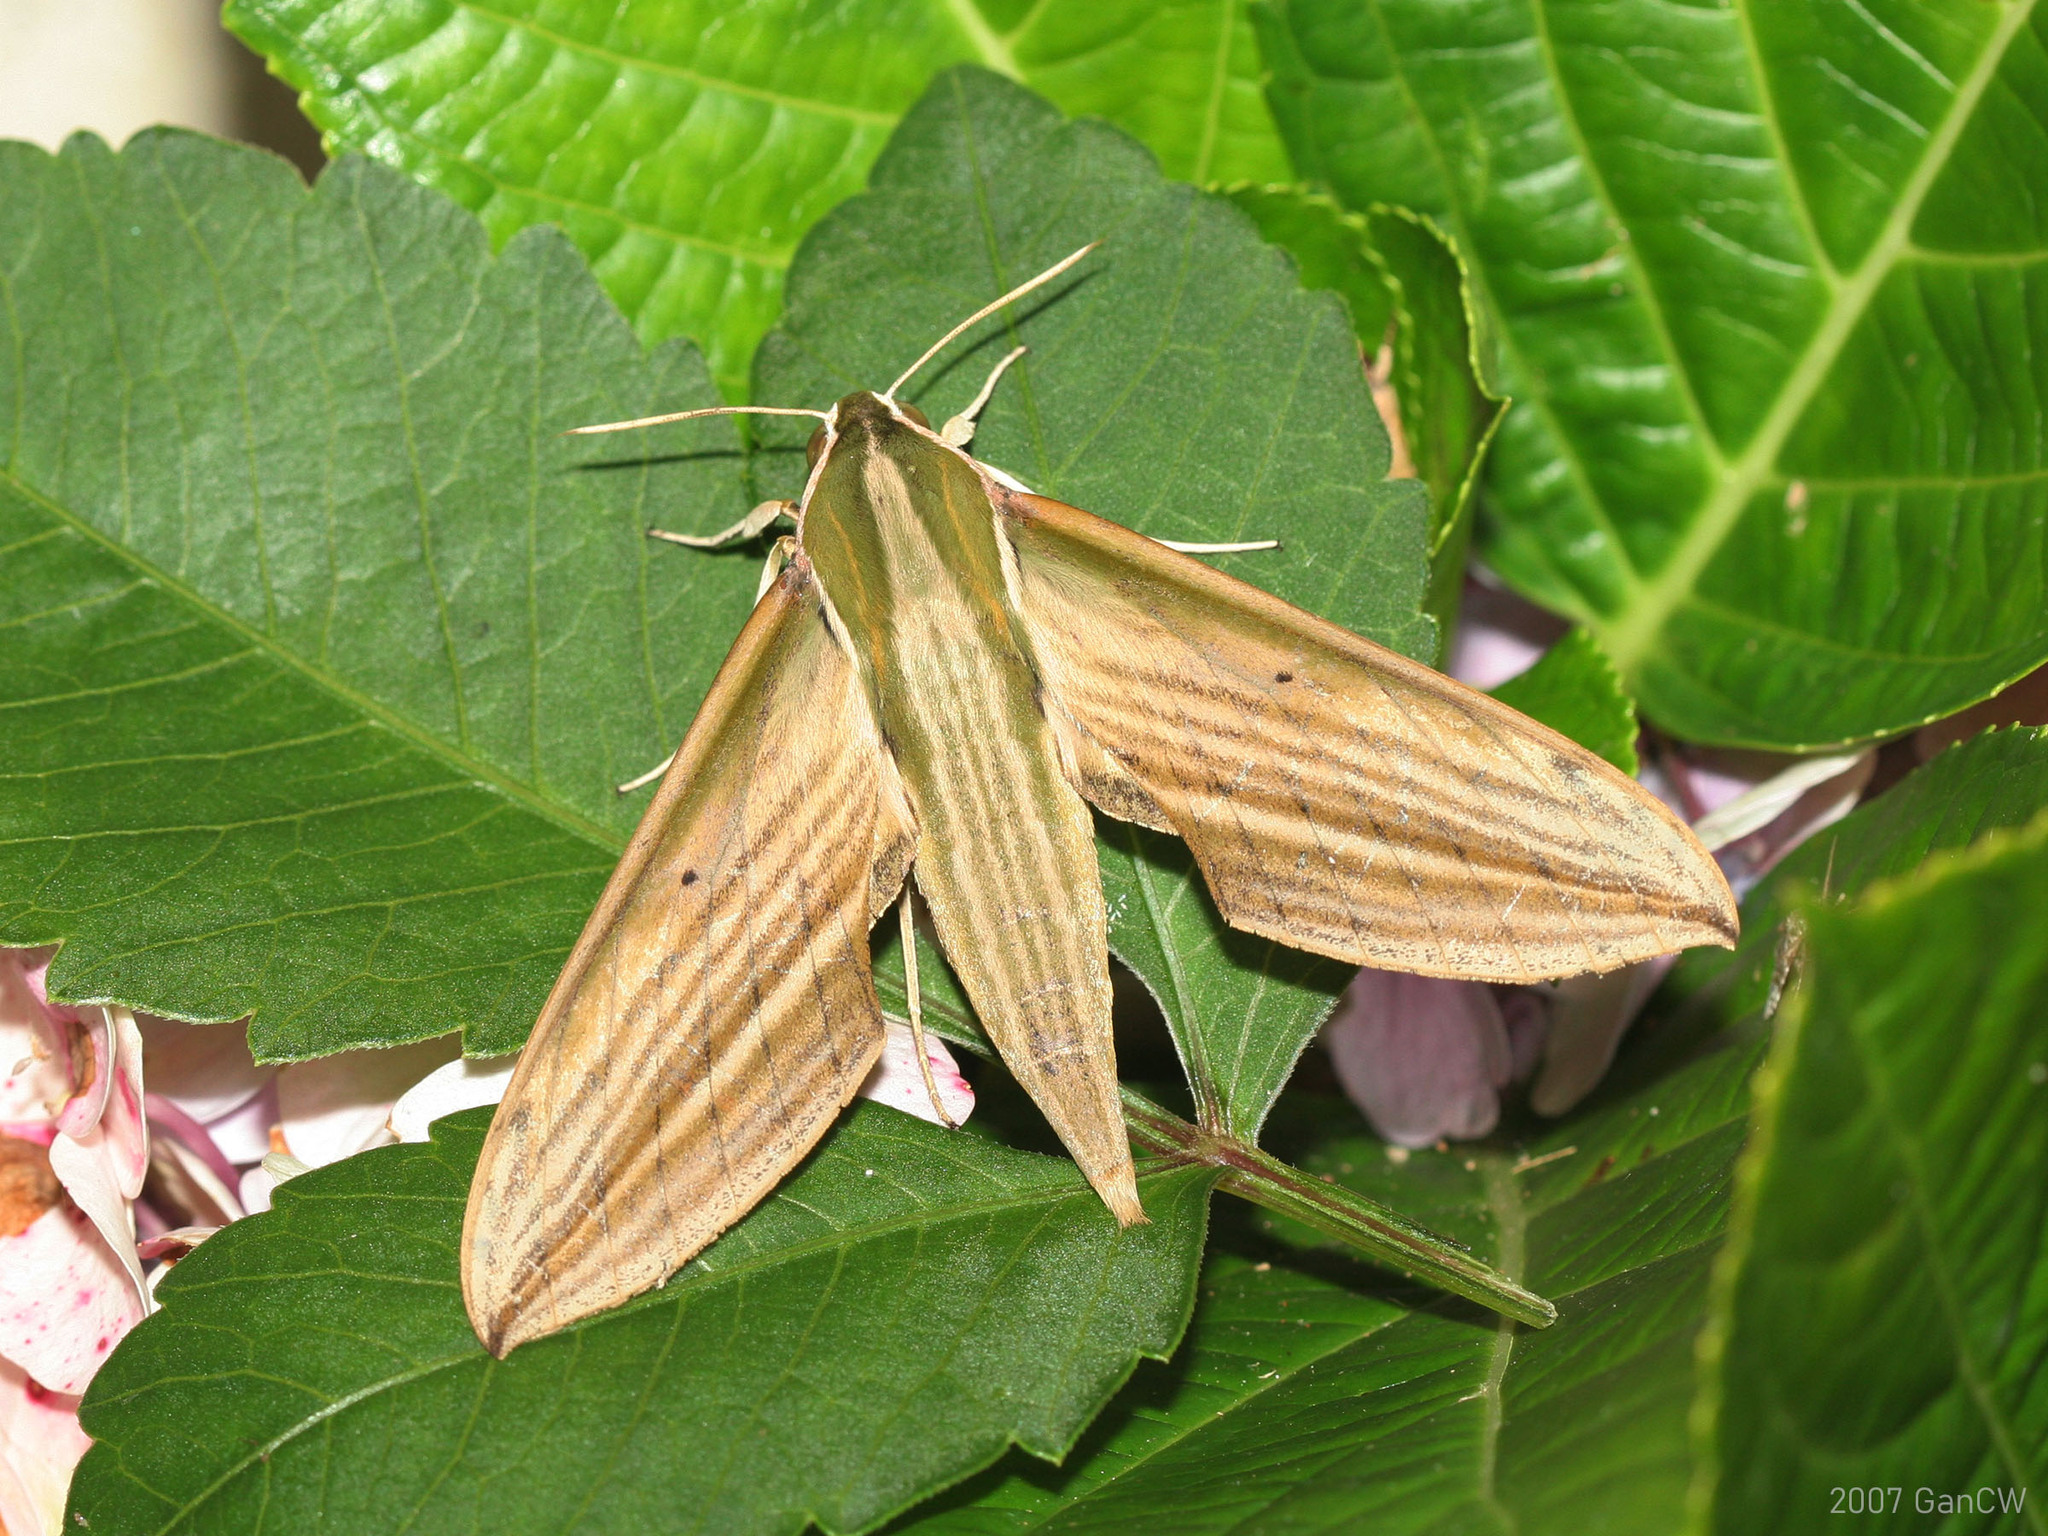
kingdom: Animalia
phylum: Arthropoda
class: Insecta
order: Lepidoptera
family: Sphingidae
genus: Cechetra
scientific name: Cechetra lineosa
